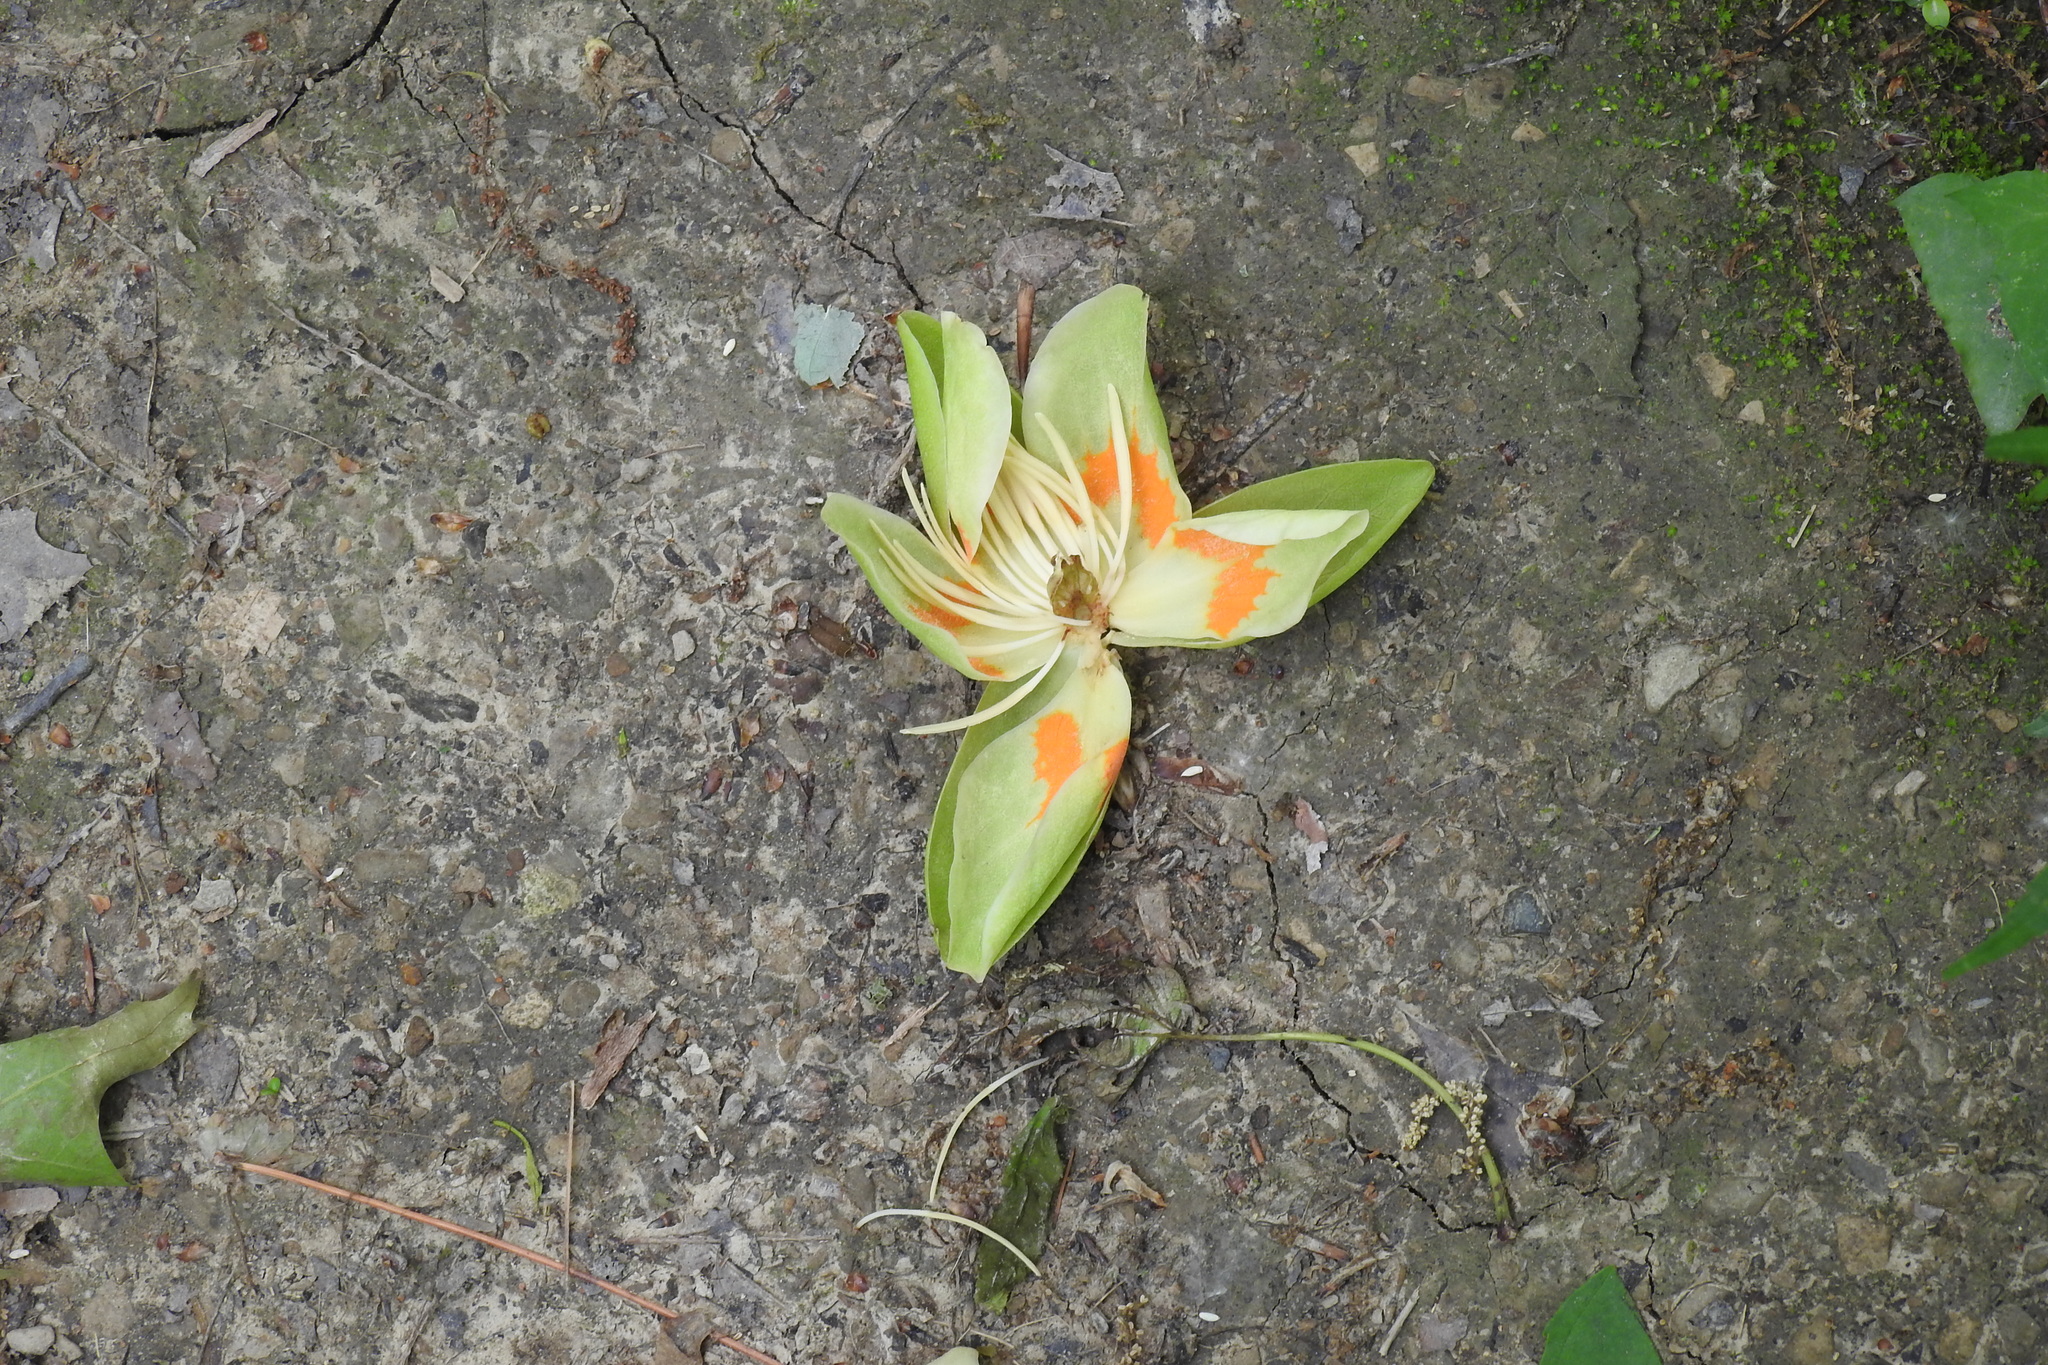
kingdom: Plantae
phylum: Tracheophyta
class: Magnoliopsida
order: Magnoliales
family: Magnoliaceae
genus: Liriodendron
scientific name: Liriodendron tulipifera
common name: Tulip tree
